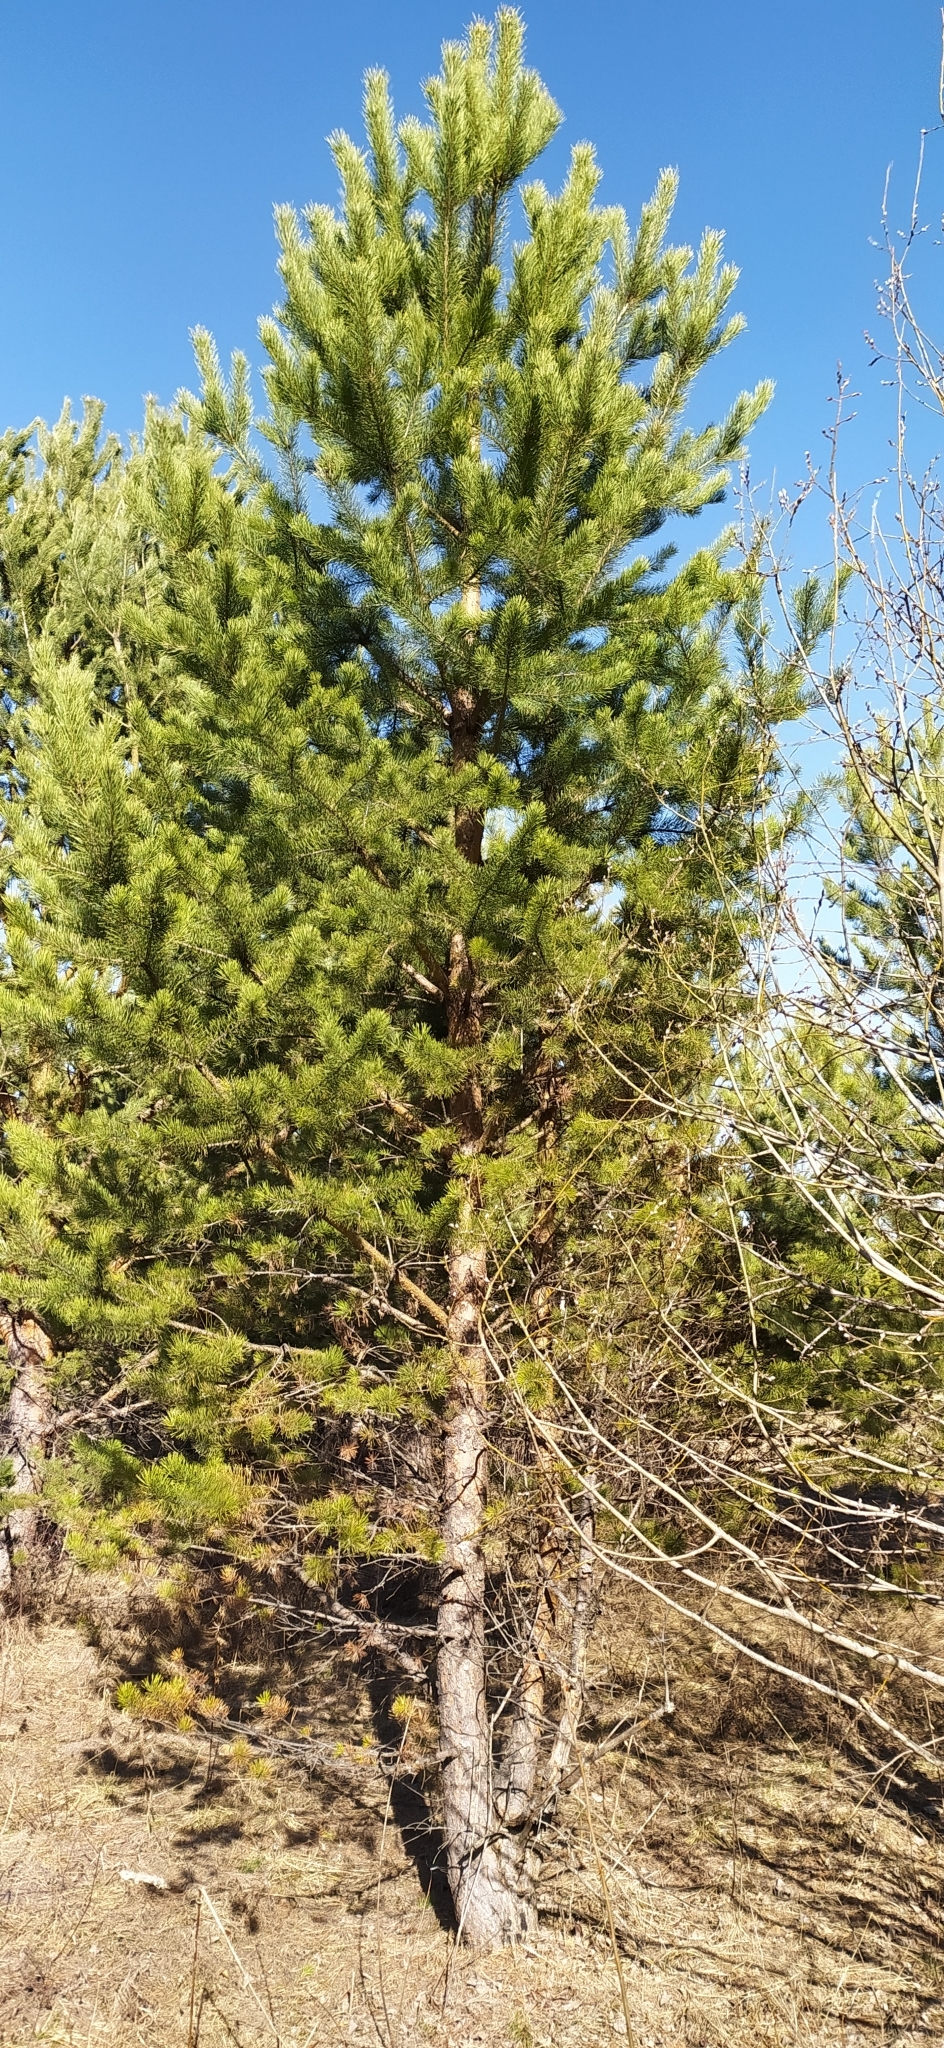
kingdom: Plantae
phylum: Tracheophyta
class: Pinopsida
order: Pinales
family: Pinaceae
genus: Pinus
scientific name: Pinus sylvestris
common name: Scots pine
